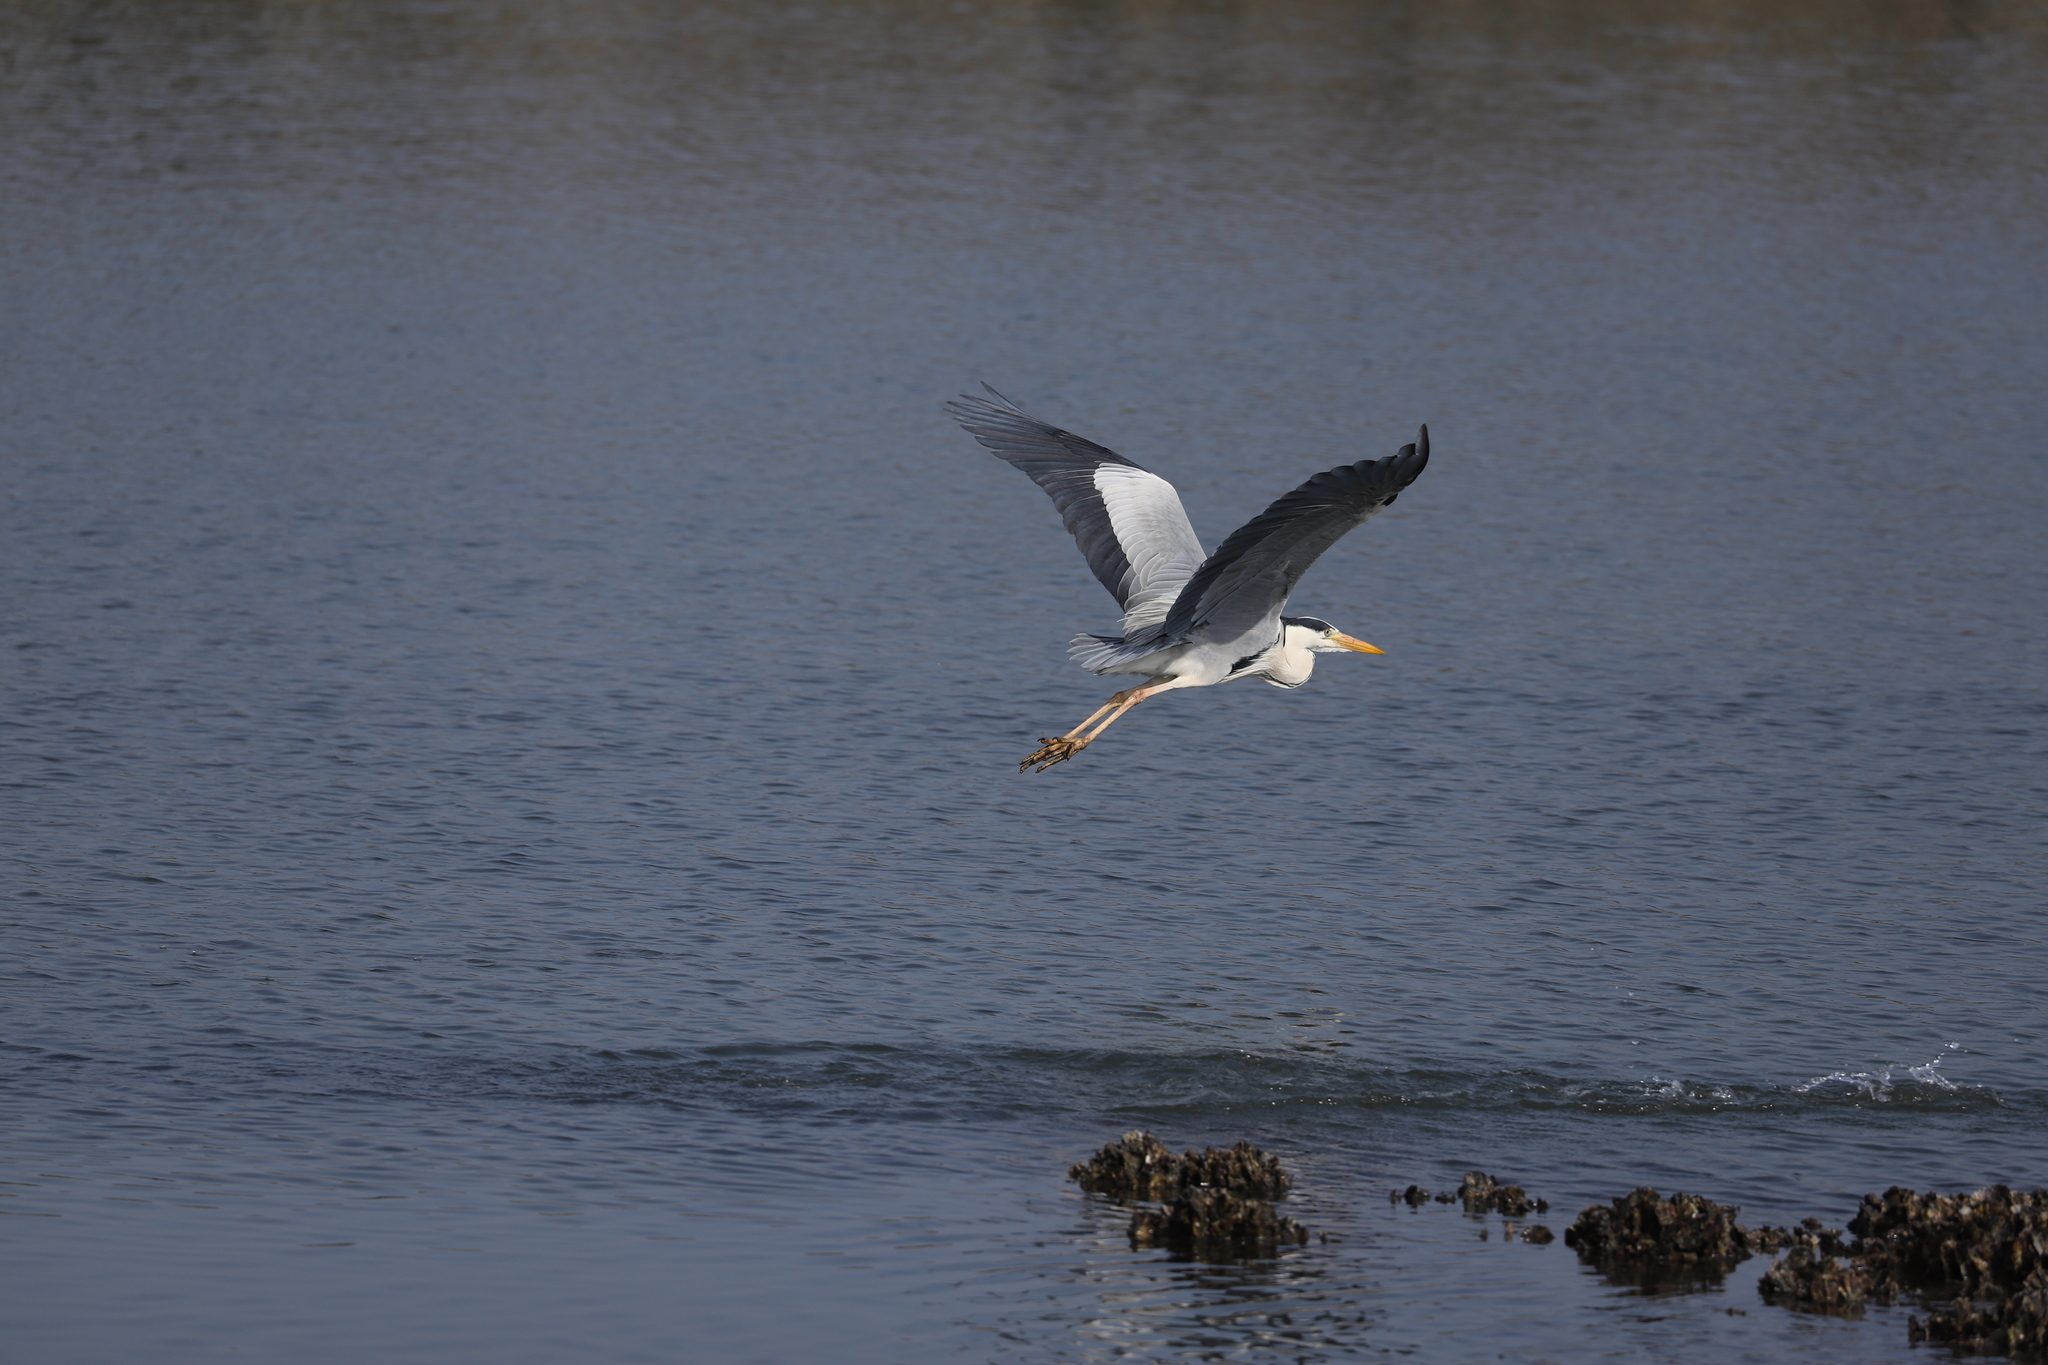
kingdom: Animalia
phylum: Chordata
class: Aves
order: Pelecaniformes
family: Ardeidae
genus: Ardea
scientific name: Ardea cinerea
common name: Grey heron
